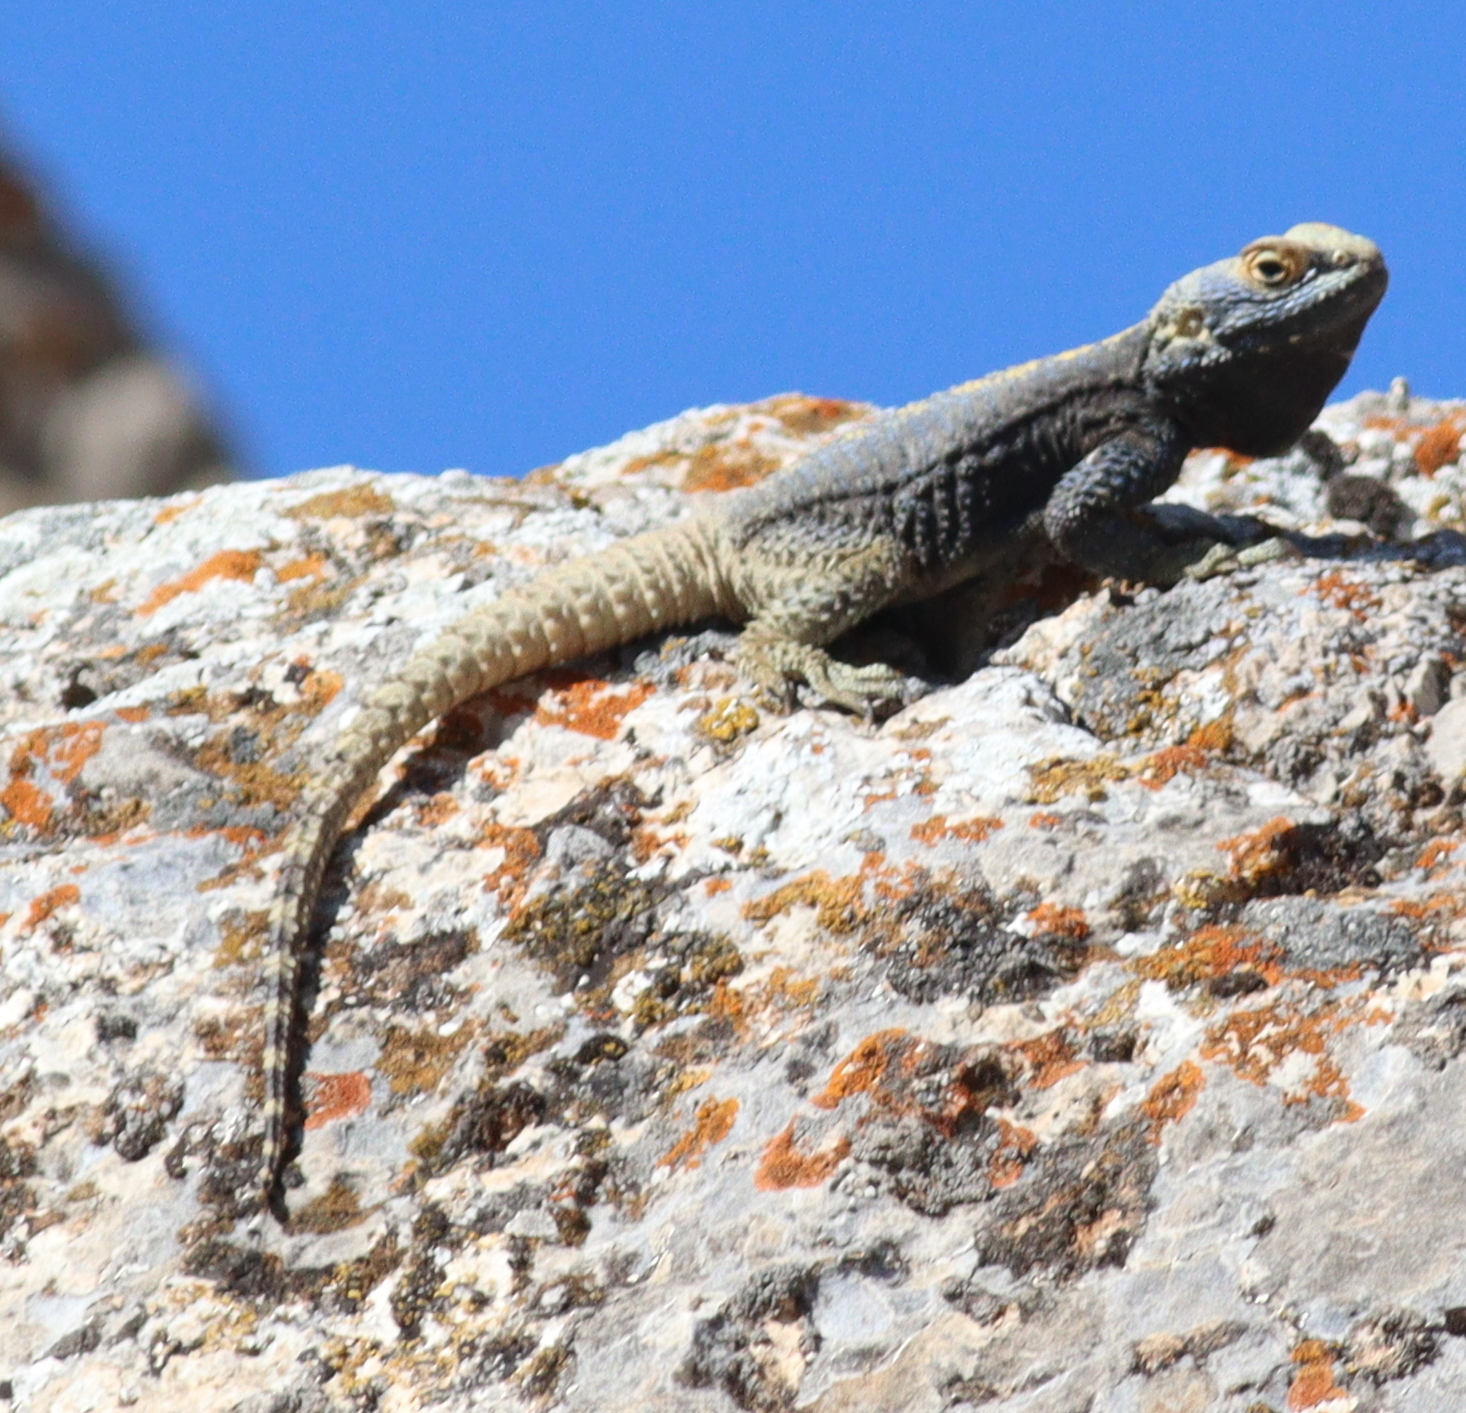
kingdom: Animalia
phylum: Chordata
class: Squamata
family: Agamidae
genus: Stellagama
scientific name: Stellagama stellio
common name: Starred agama
